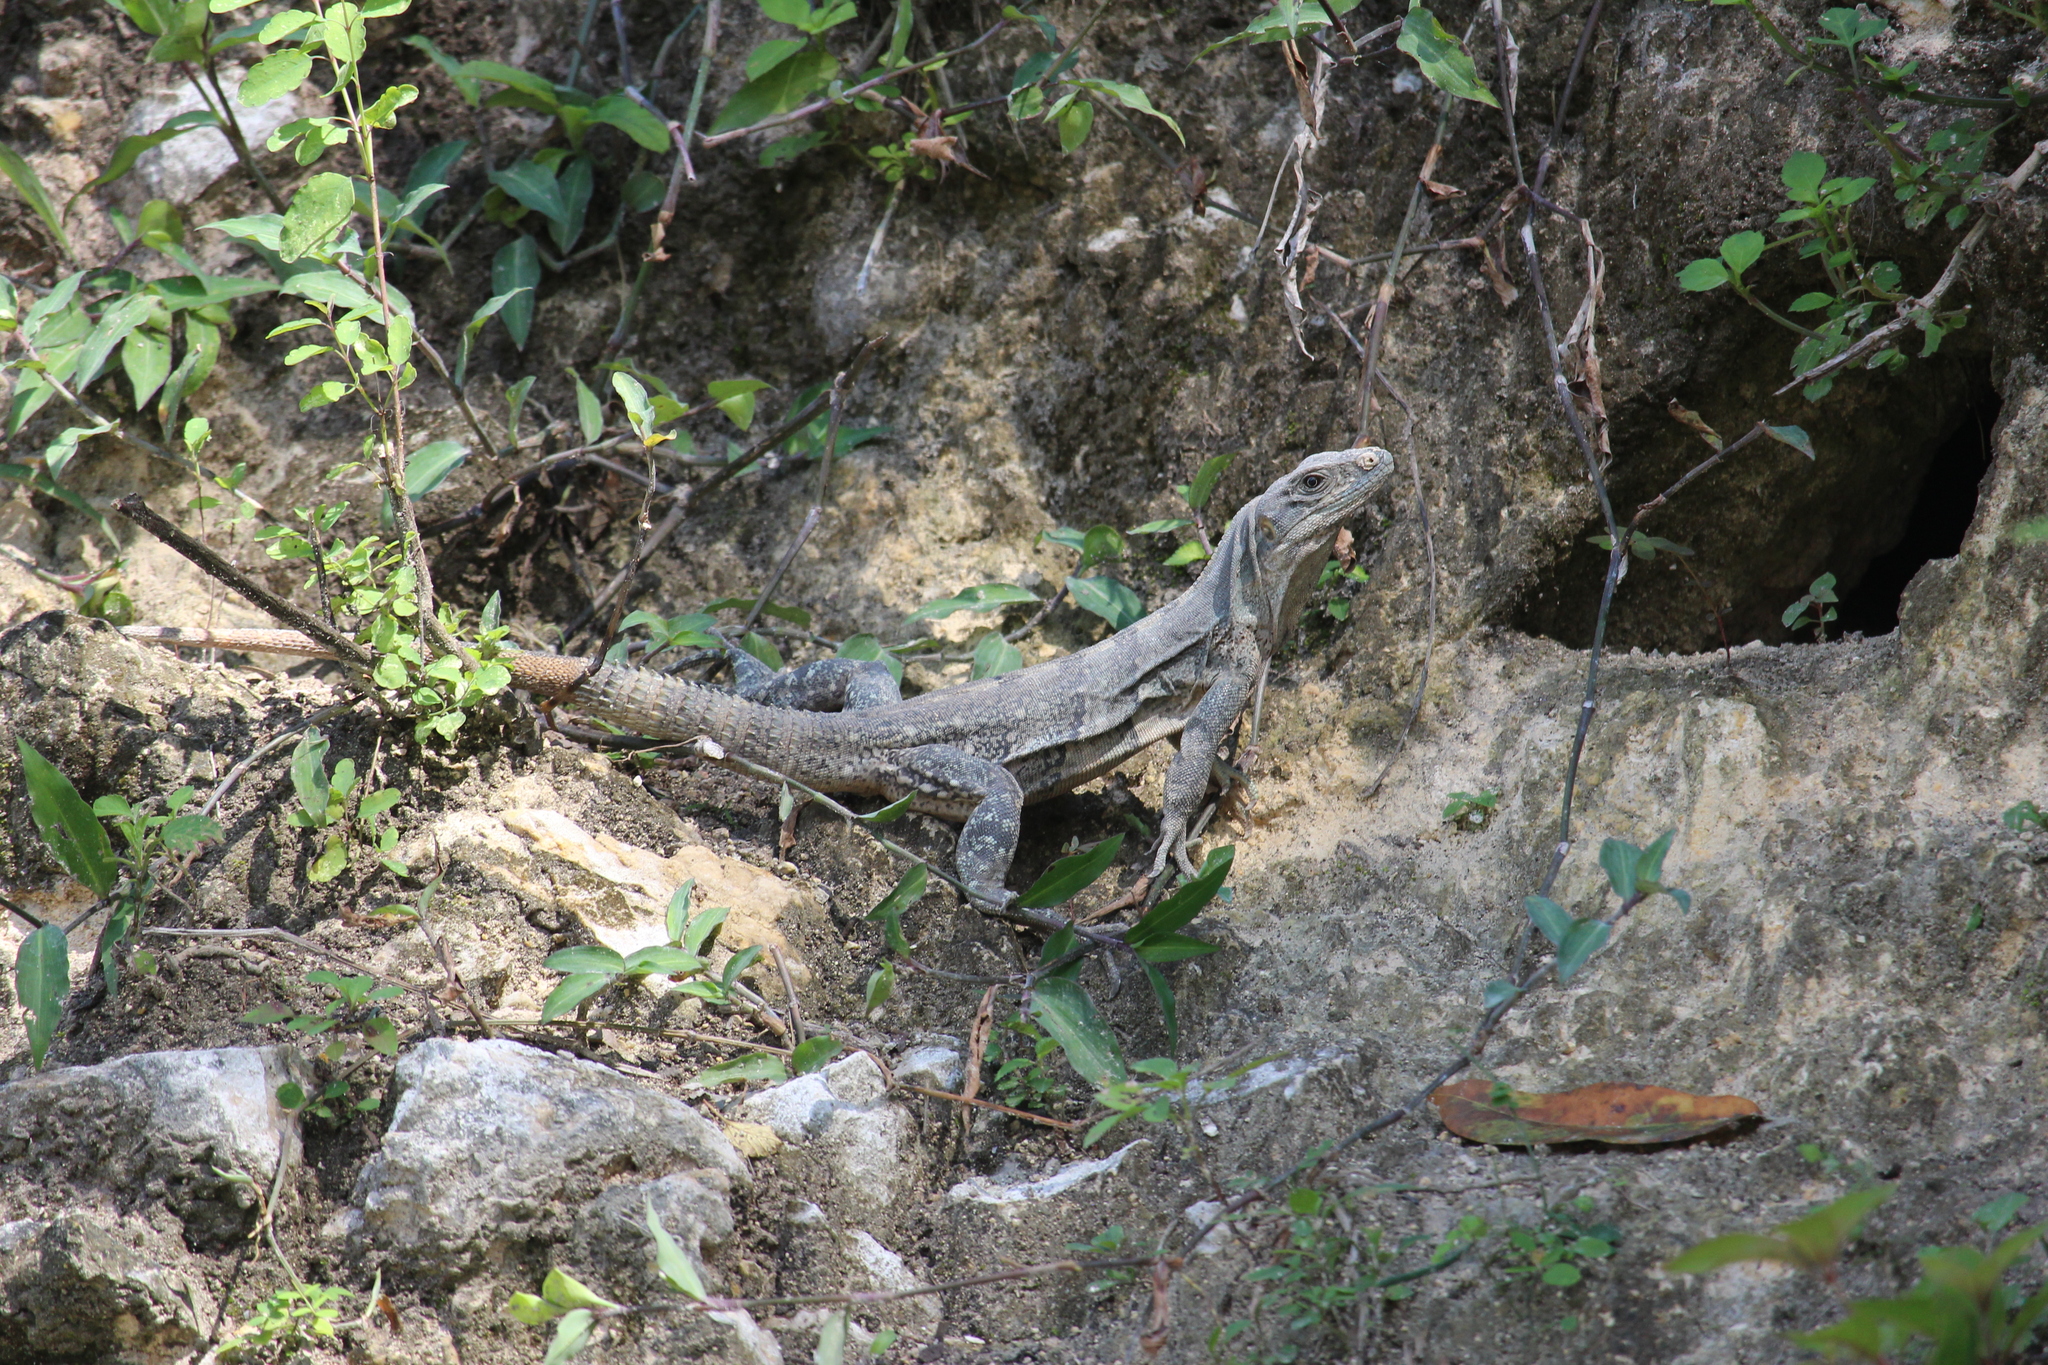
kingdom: Animalia
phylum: Chordata
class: Squamata
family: Iguanidae
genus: Ctenosaura
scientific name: Ctenosaura similis
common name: Black spiny-tailed iguana
